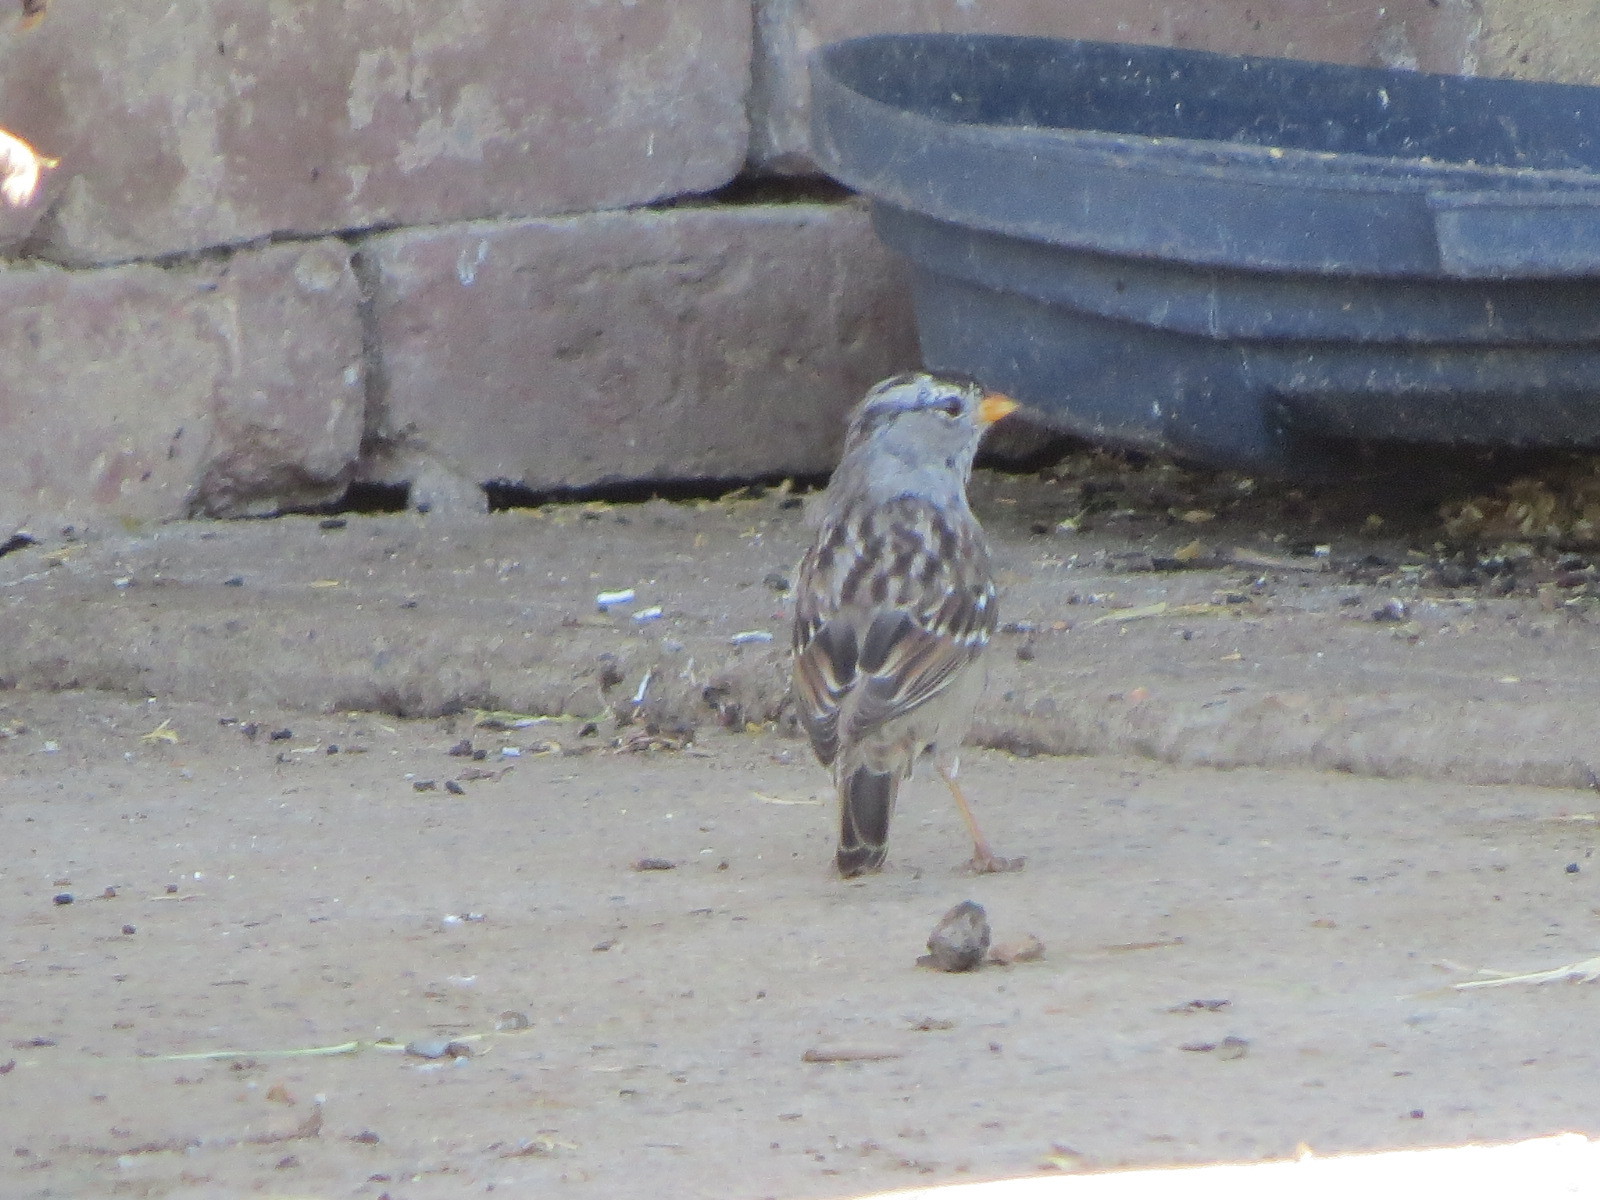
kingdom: Animalia
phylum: Chordata
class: Aves
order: Passeriformes
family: Passerellidae
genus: Zonotrichia
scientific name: Zonotrichia leucophrys
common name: White-crowned sparrow
